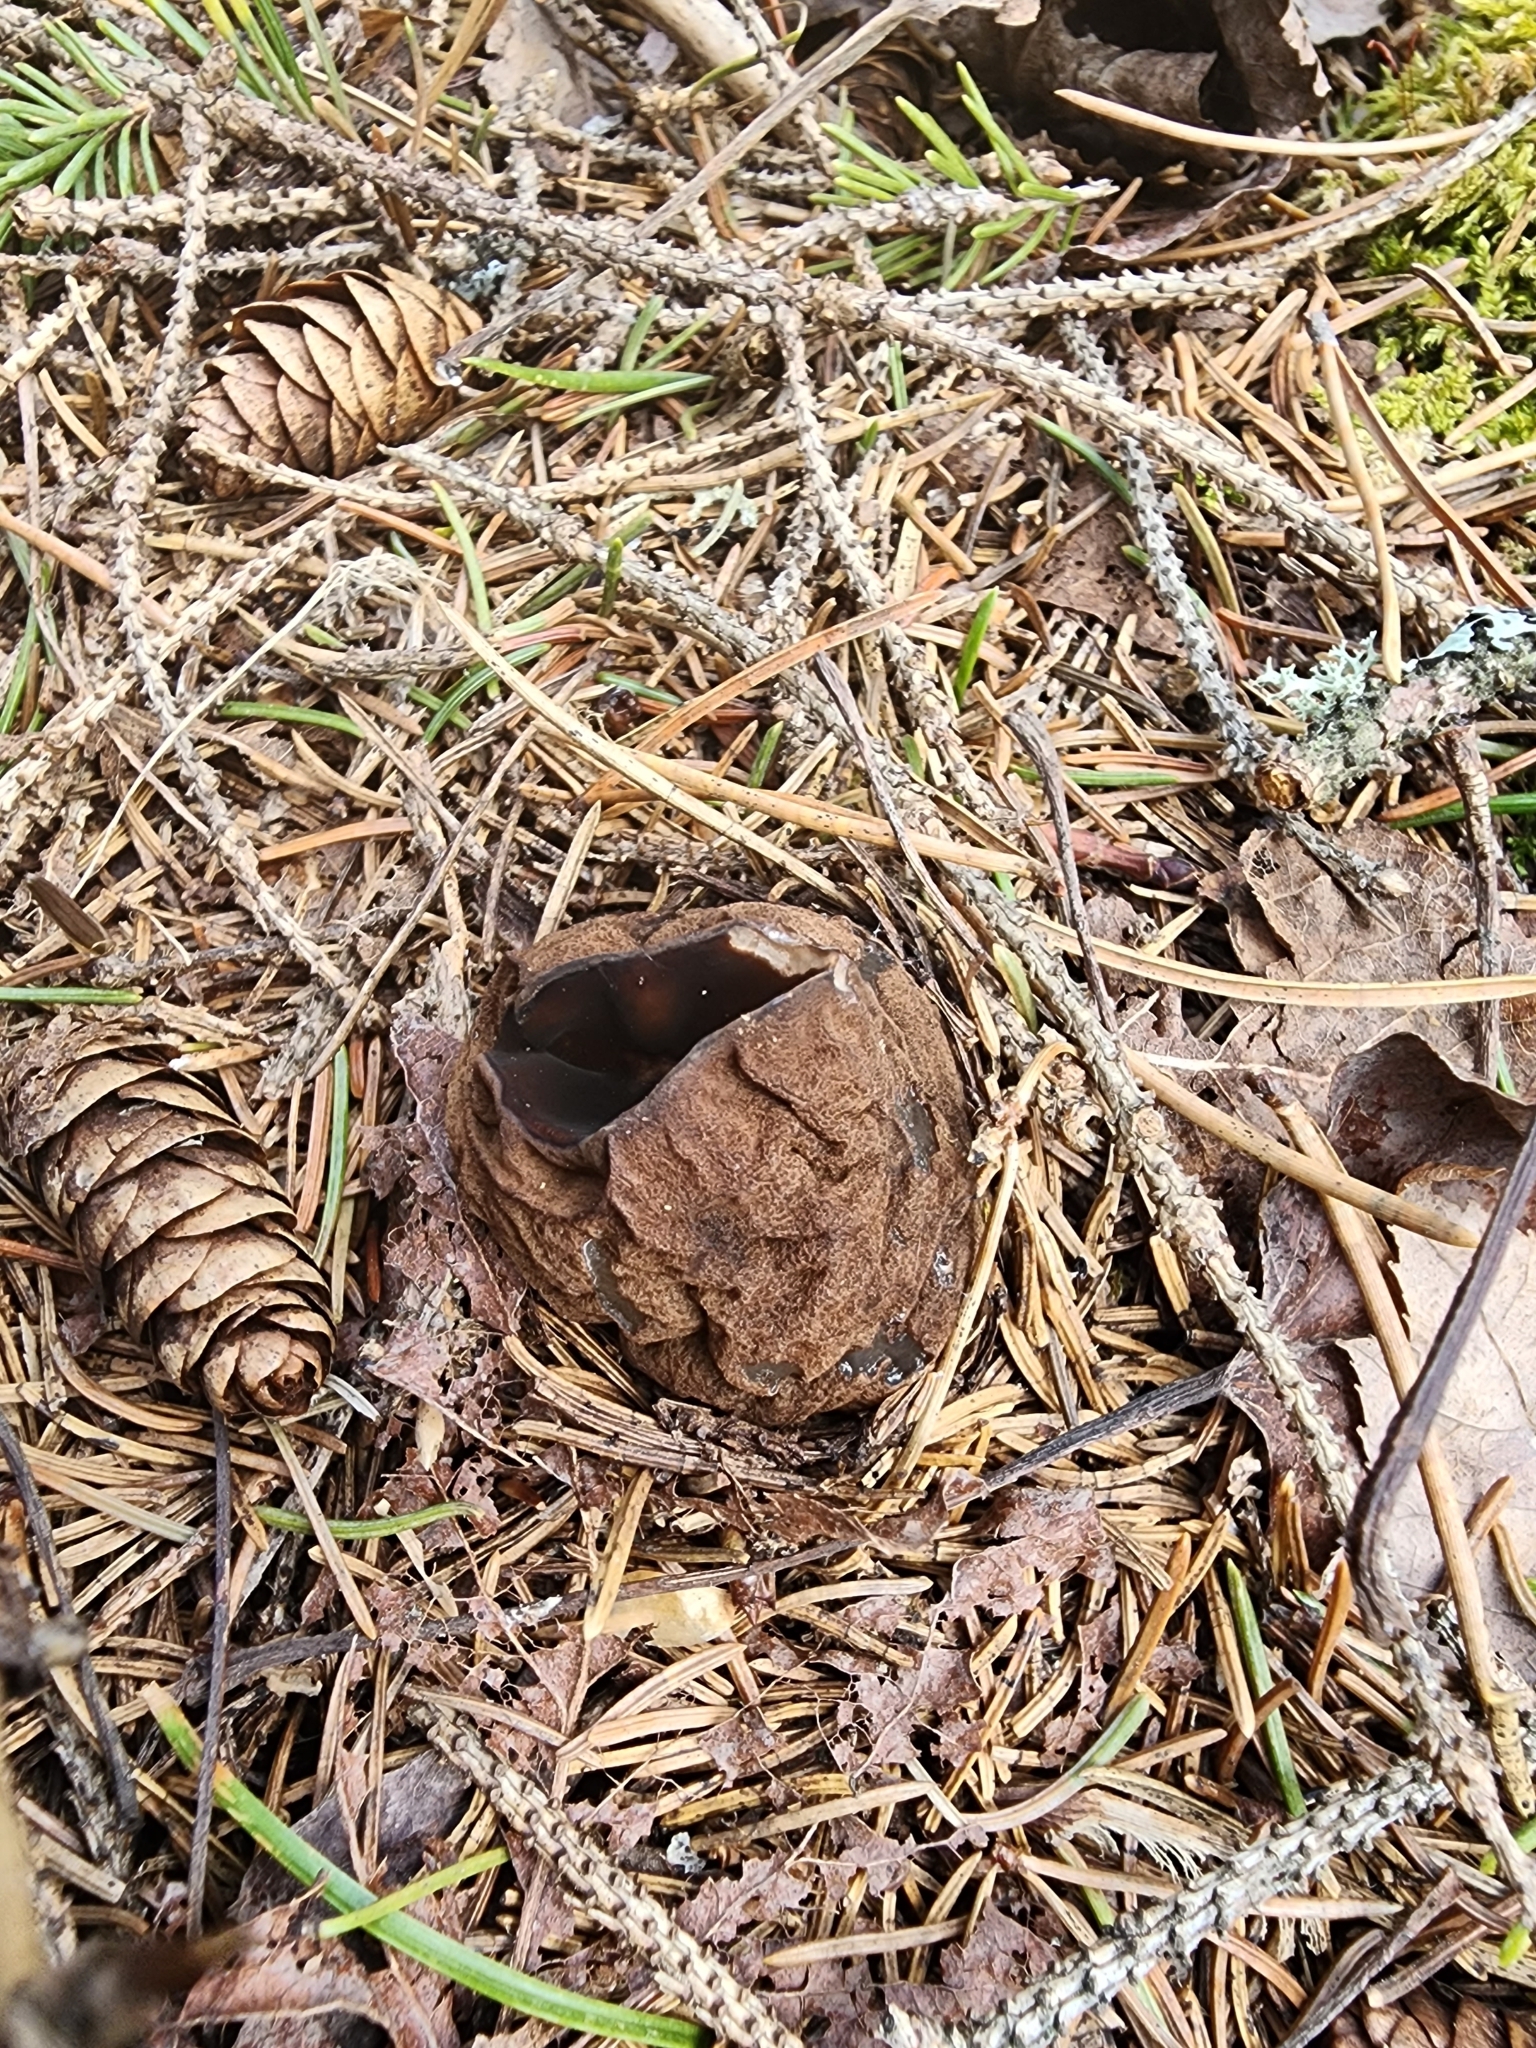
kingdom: Fungi
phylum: Ascomycota
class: Pezizomycetes
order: Pezizales
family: Sarcosomataceae
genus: Sarcosoma
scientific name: Sarcosoma globosum
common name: Charred-pancake cup
